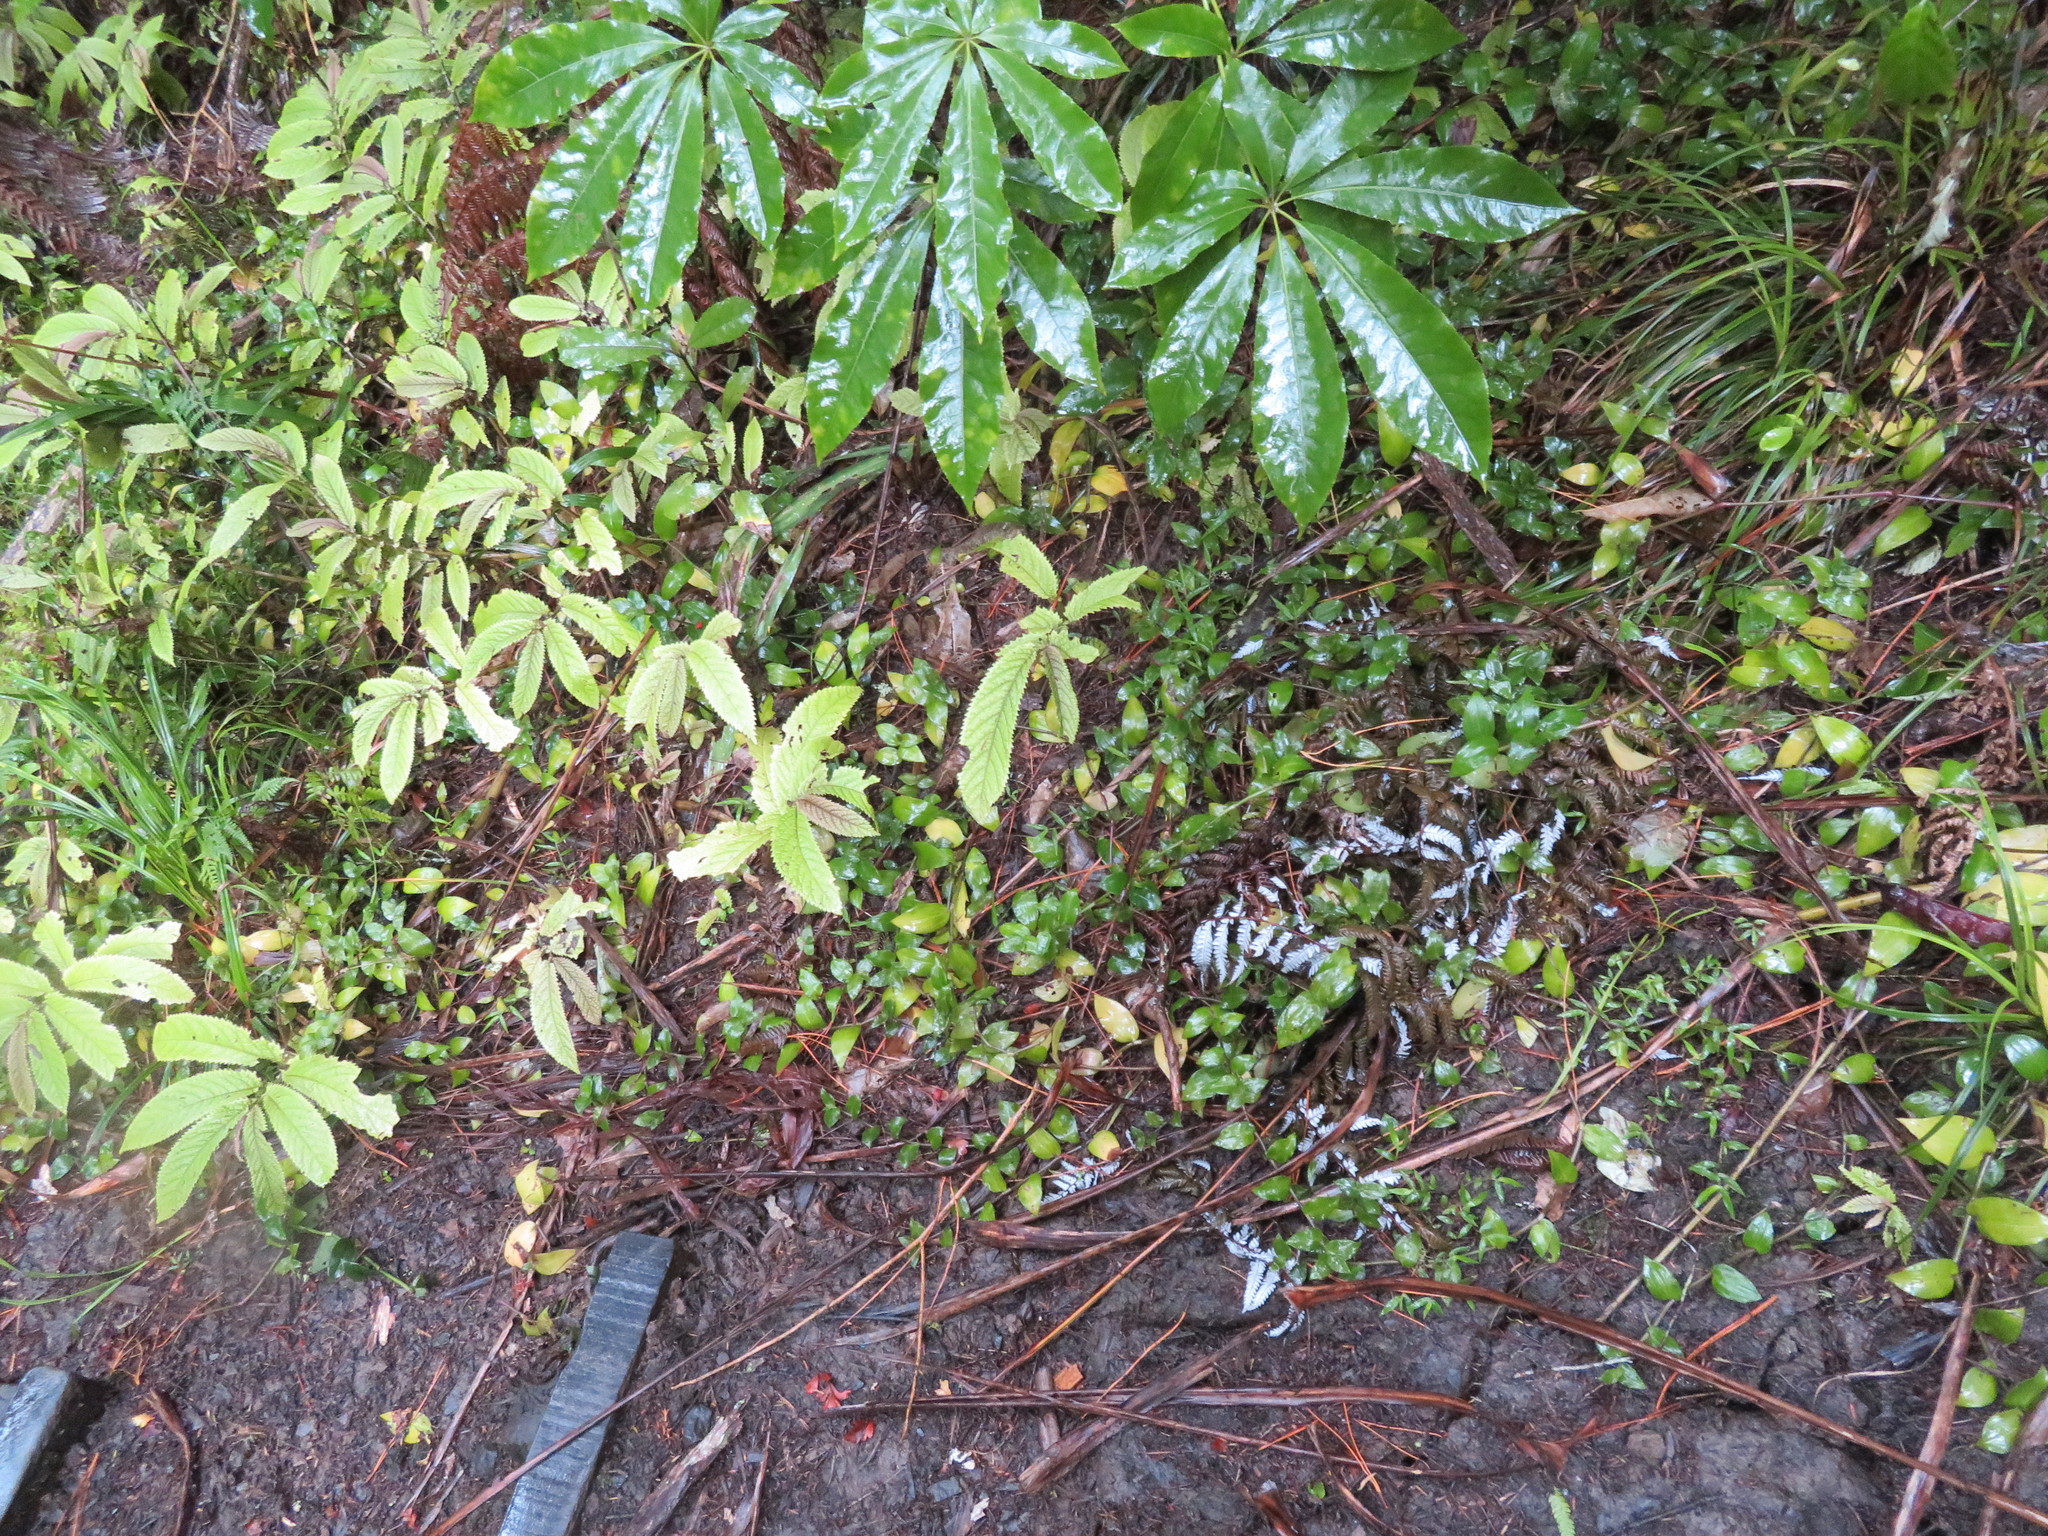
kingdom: Plantae
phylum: Tracheophyta
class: Liliopsida
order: Commelinales
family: Commelinaceae
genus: Tradescantia
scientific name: Tradescantia fluminensis
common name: Wandering-jew
